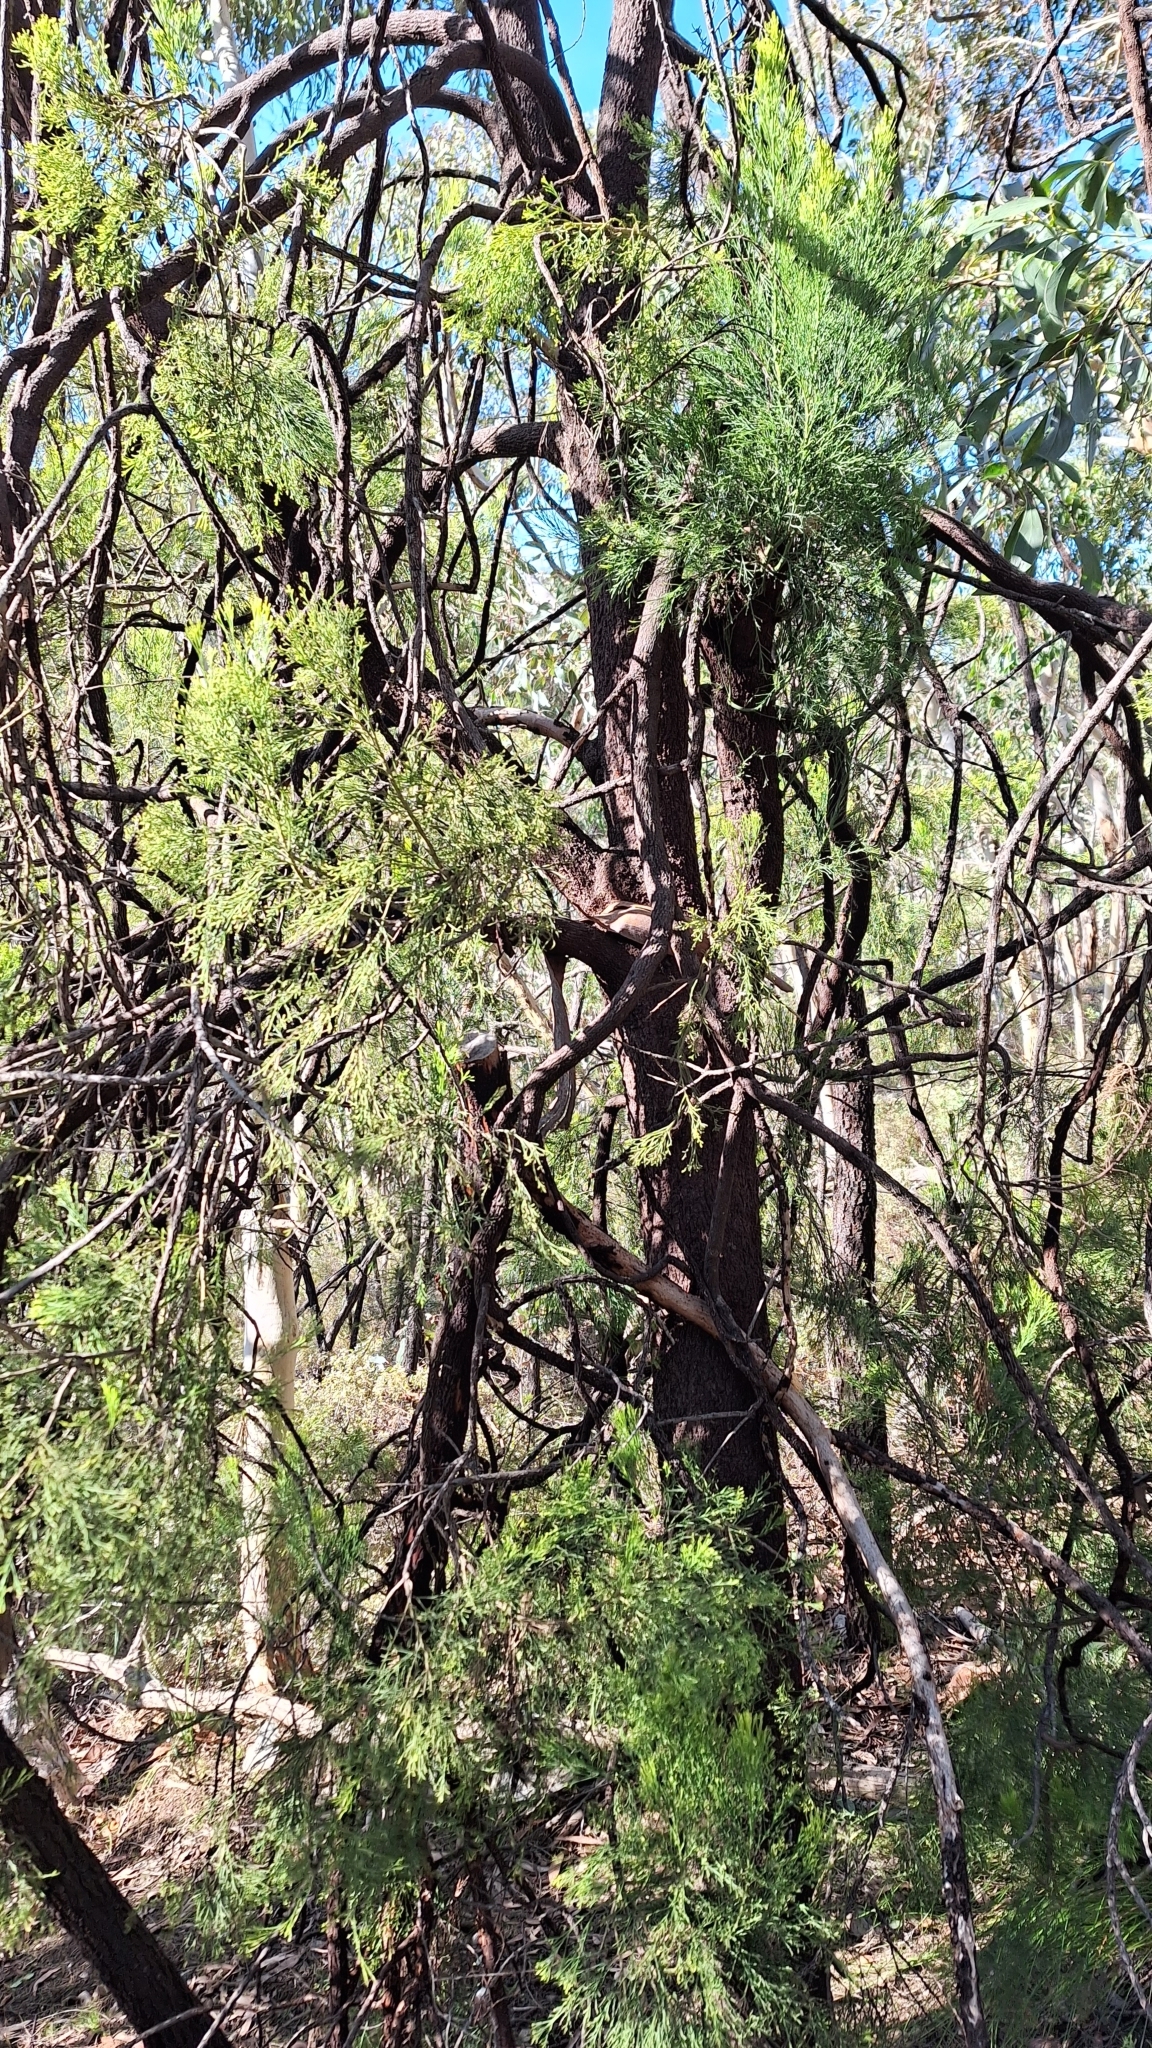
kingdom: Plantae
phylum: Tracheophyta
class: Magnoliopsida
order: Santalales
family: Santalaceae
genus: Exocarpos
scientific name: Exocarpos cupressiformis
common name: Cherry ballart
